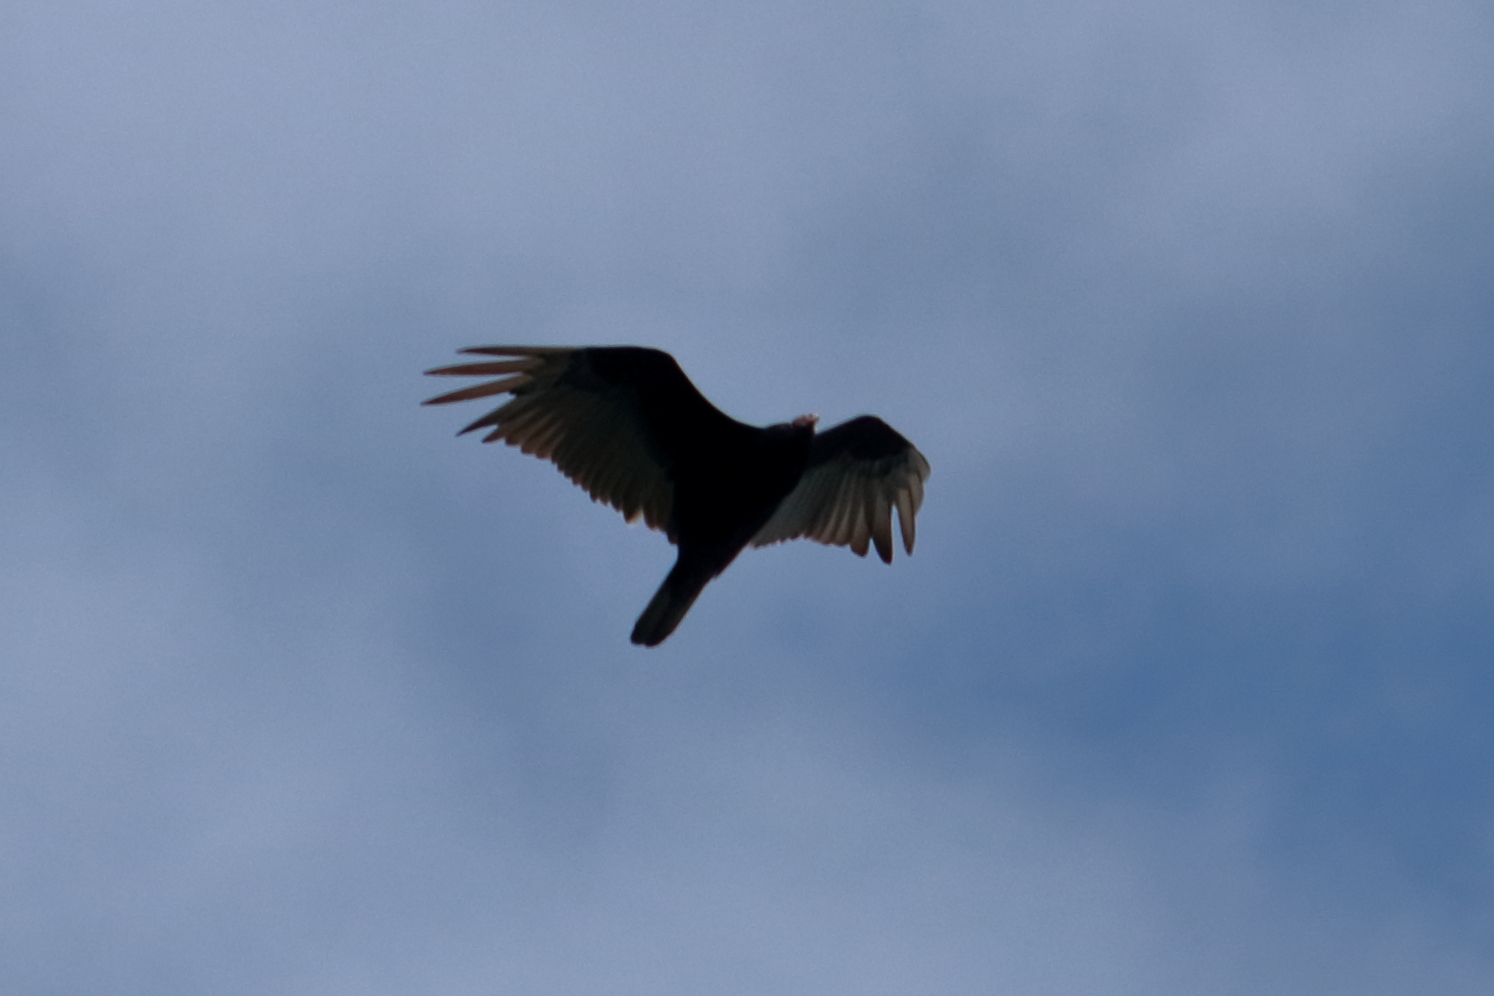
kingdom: Animalia
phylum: Chordata
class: Aves
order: Accipitriformes
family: Cathartidae
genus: Cathartes
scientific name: Cathartes aura
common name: Turkey vulture
